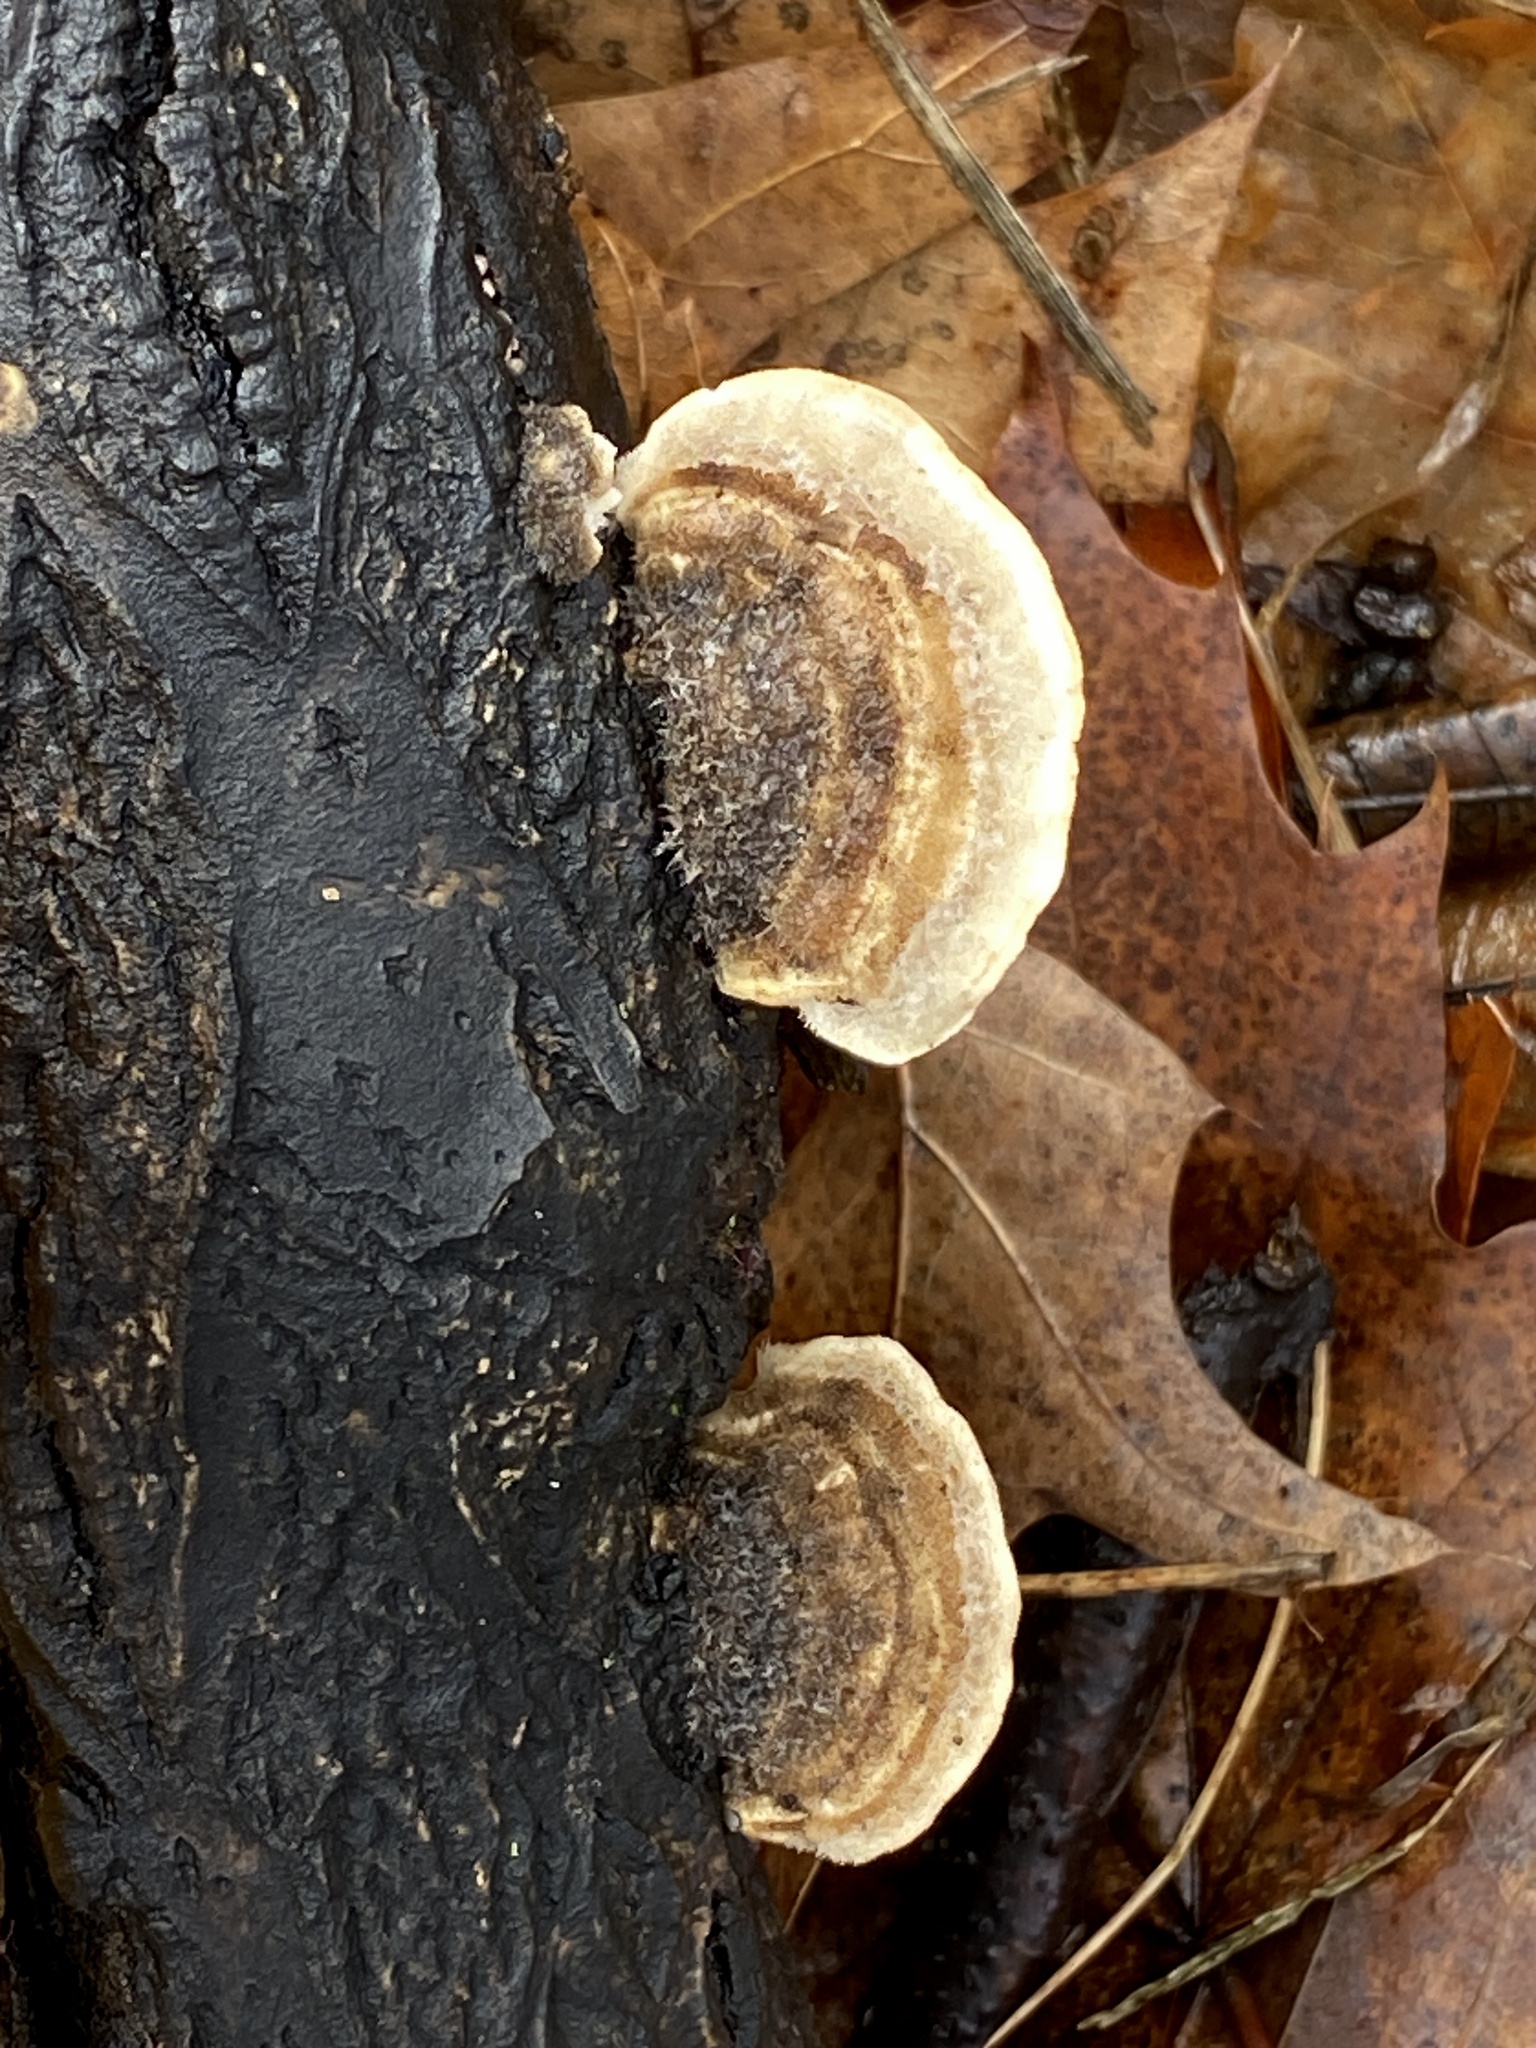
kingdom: Fungi
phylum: Basidiomycota
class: Agaricomycetes
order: Polyporales
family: Polyporaceae
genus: Trametes
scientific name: Trametes hirsuta
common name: Hairy bracket
